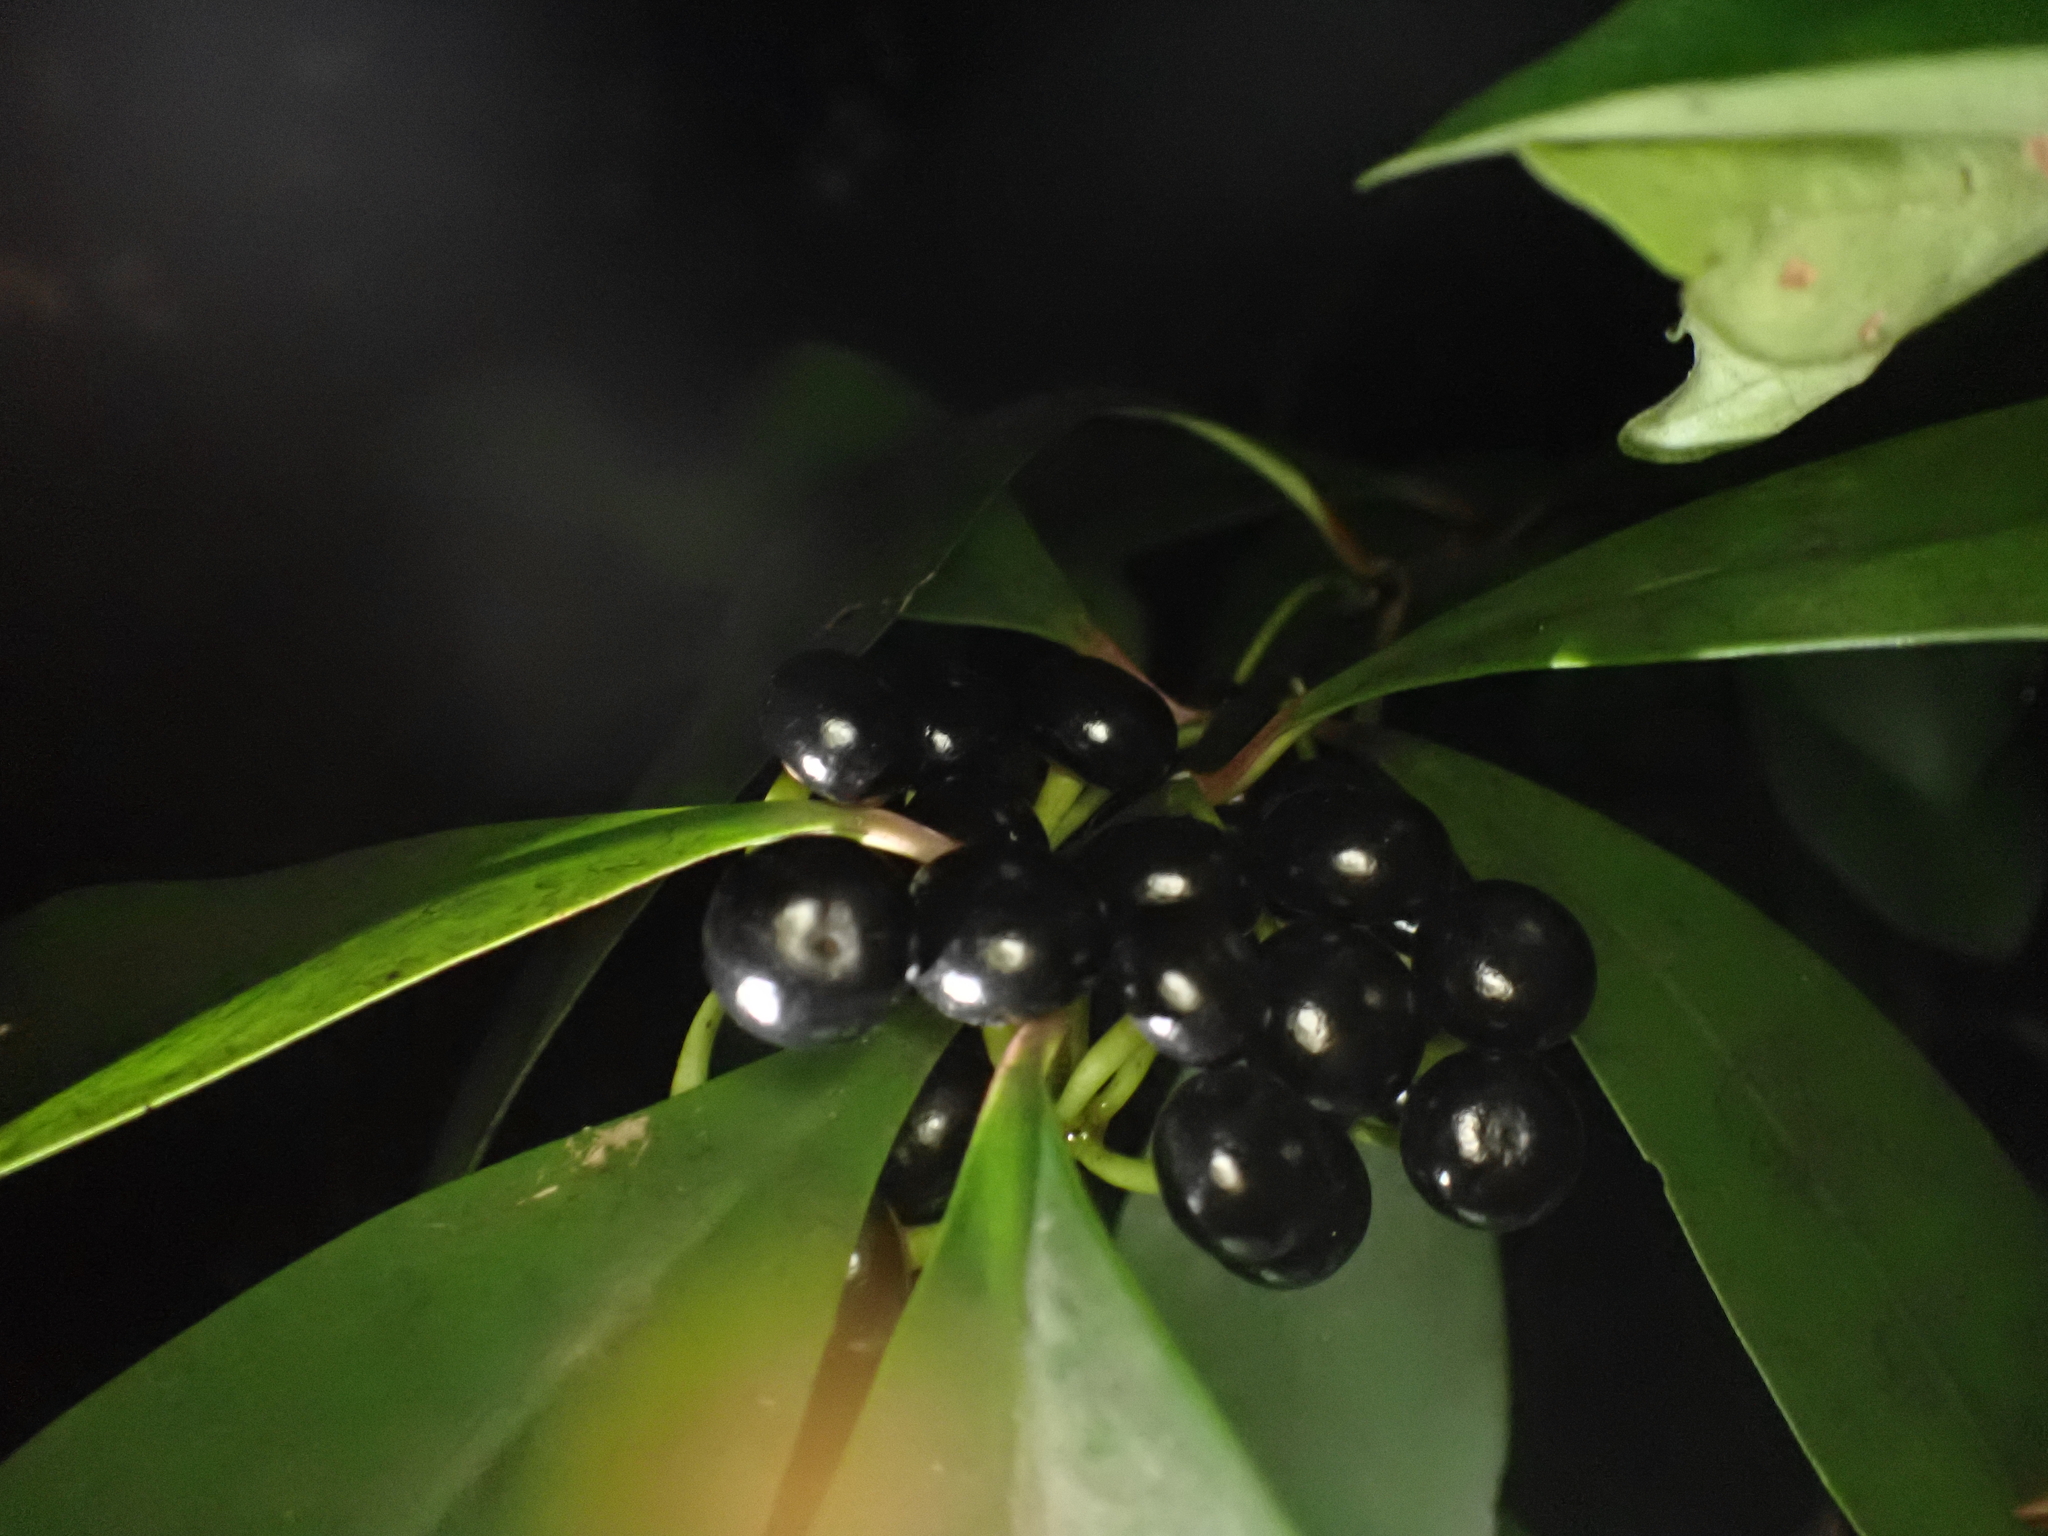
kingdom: Plantae
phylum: Tracheophyta
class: Magnoliopsida
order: Ericales
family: Primulaceae
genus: Ardisia
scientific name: Ardisia elliptica
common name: Shoebutton
